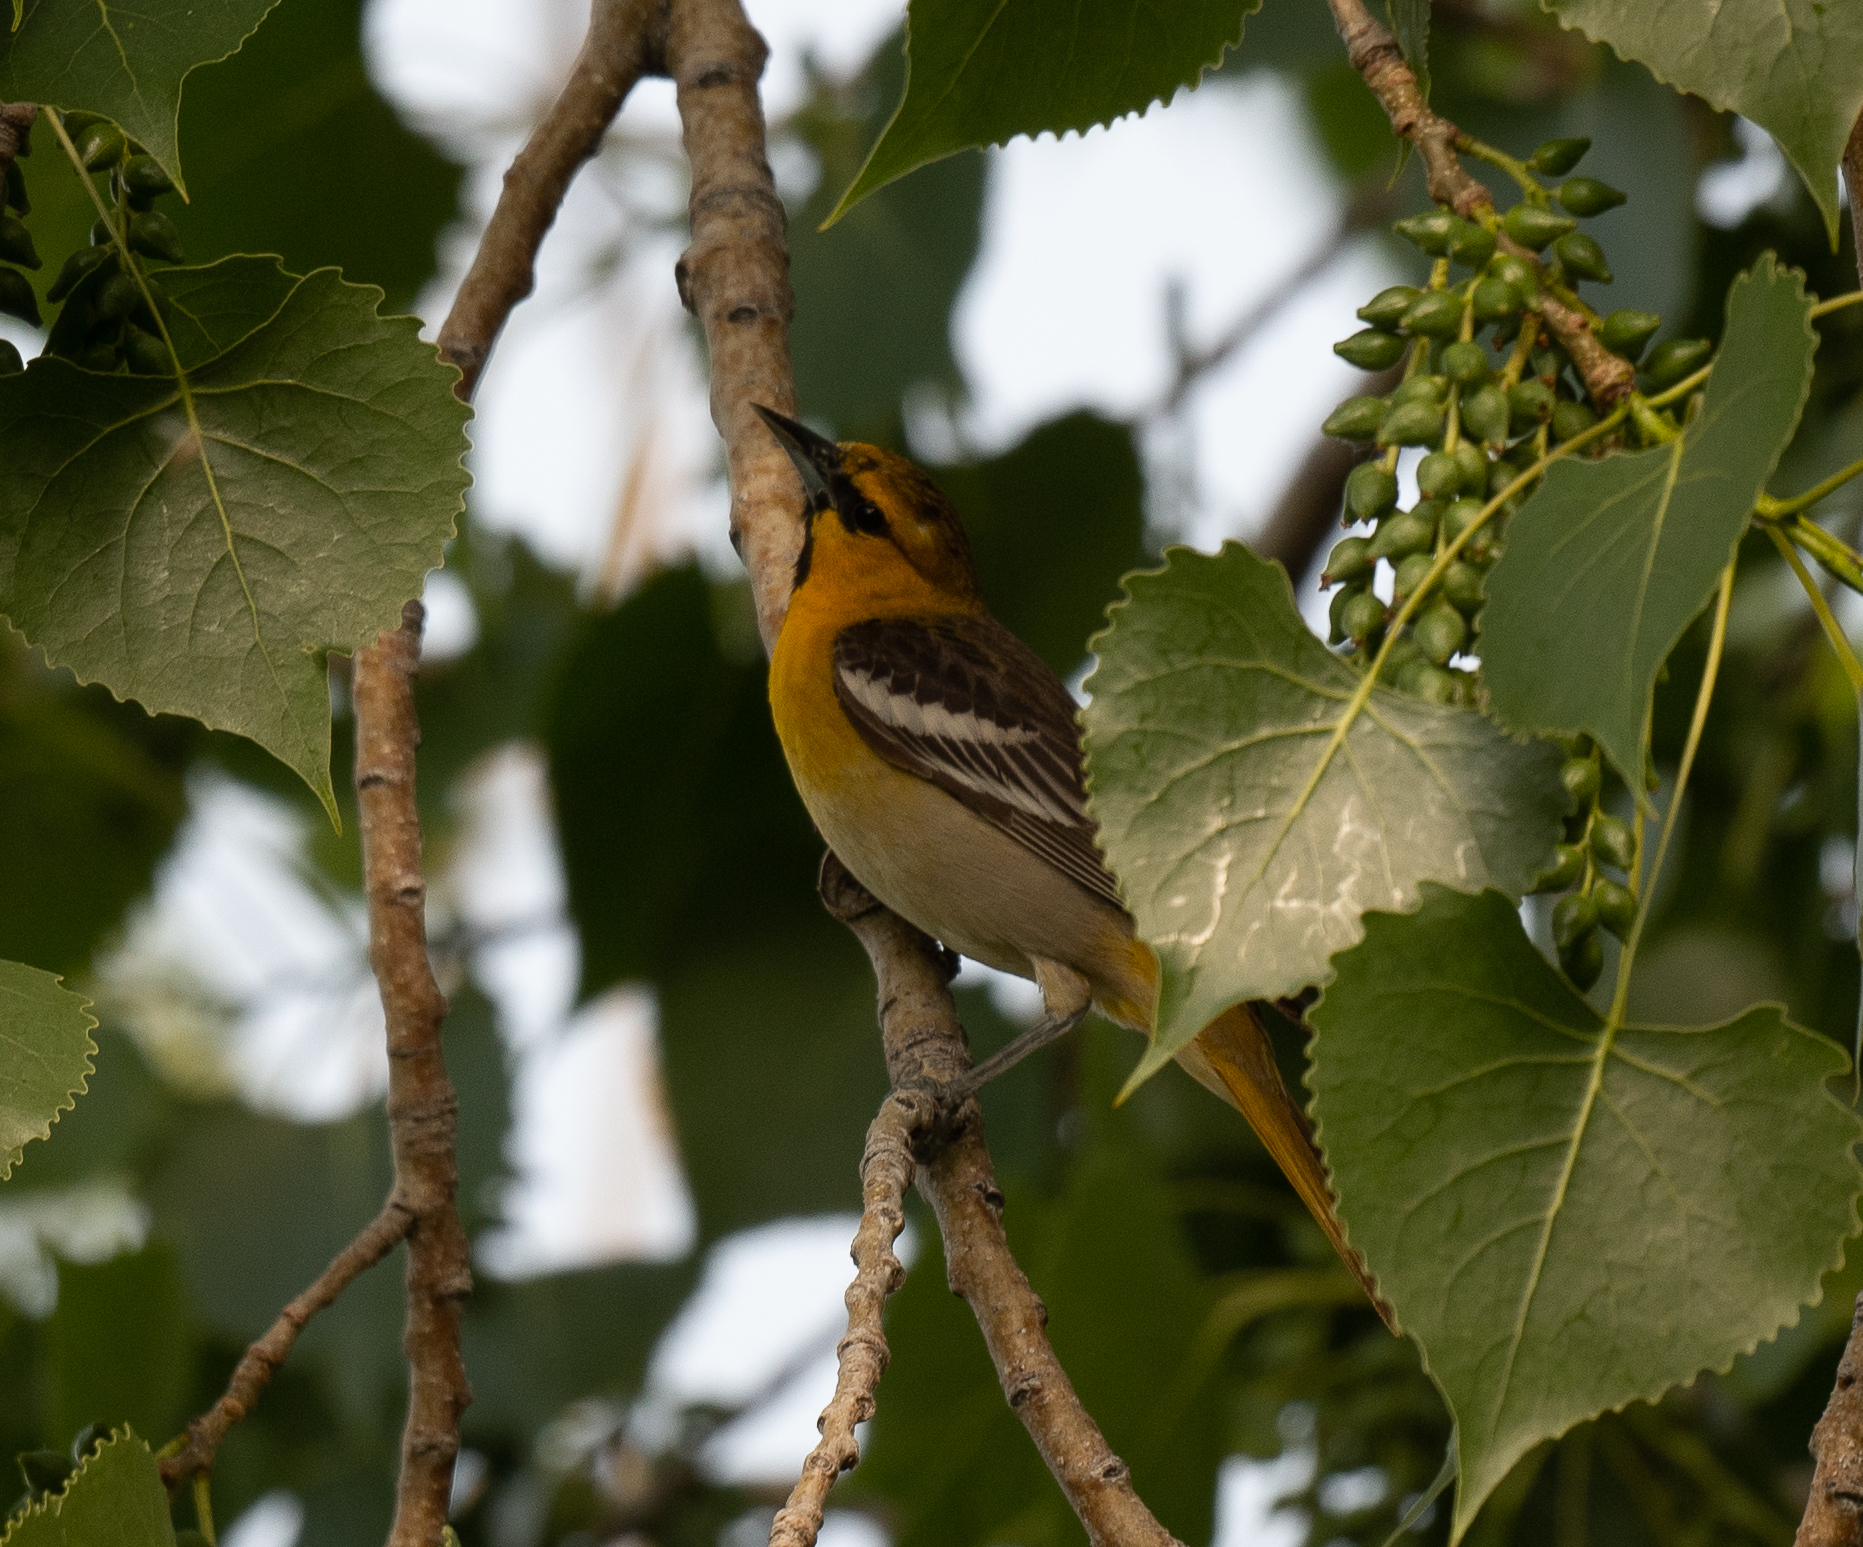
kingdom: Animalia
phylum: Chordata
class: Aves
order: Passeriformes
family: Icteridae
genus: Icterus
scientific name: Icterus bullockii
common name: Bullock's oriole
